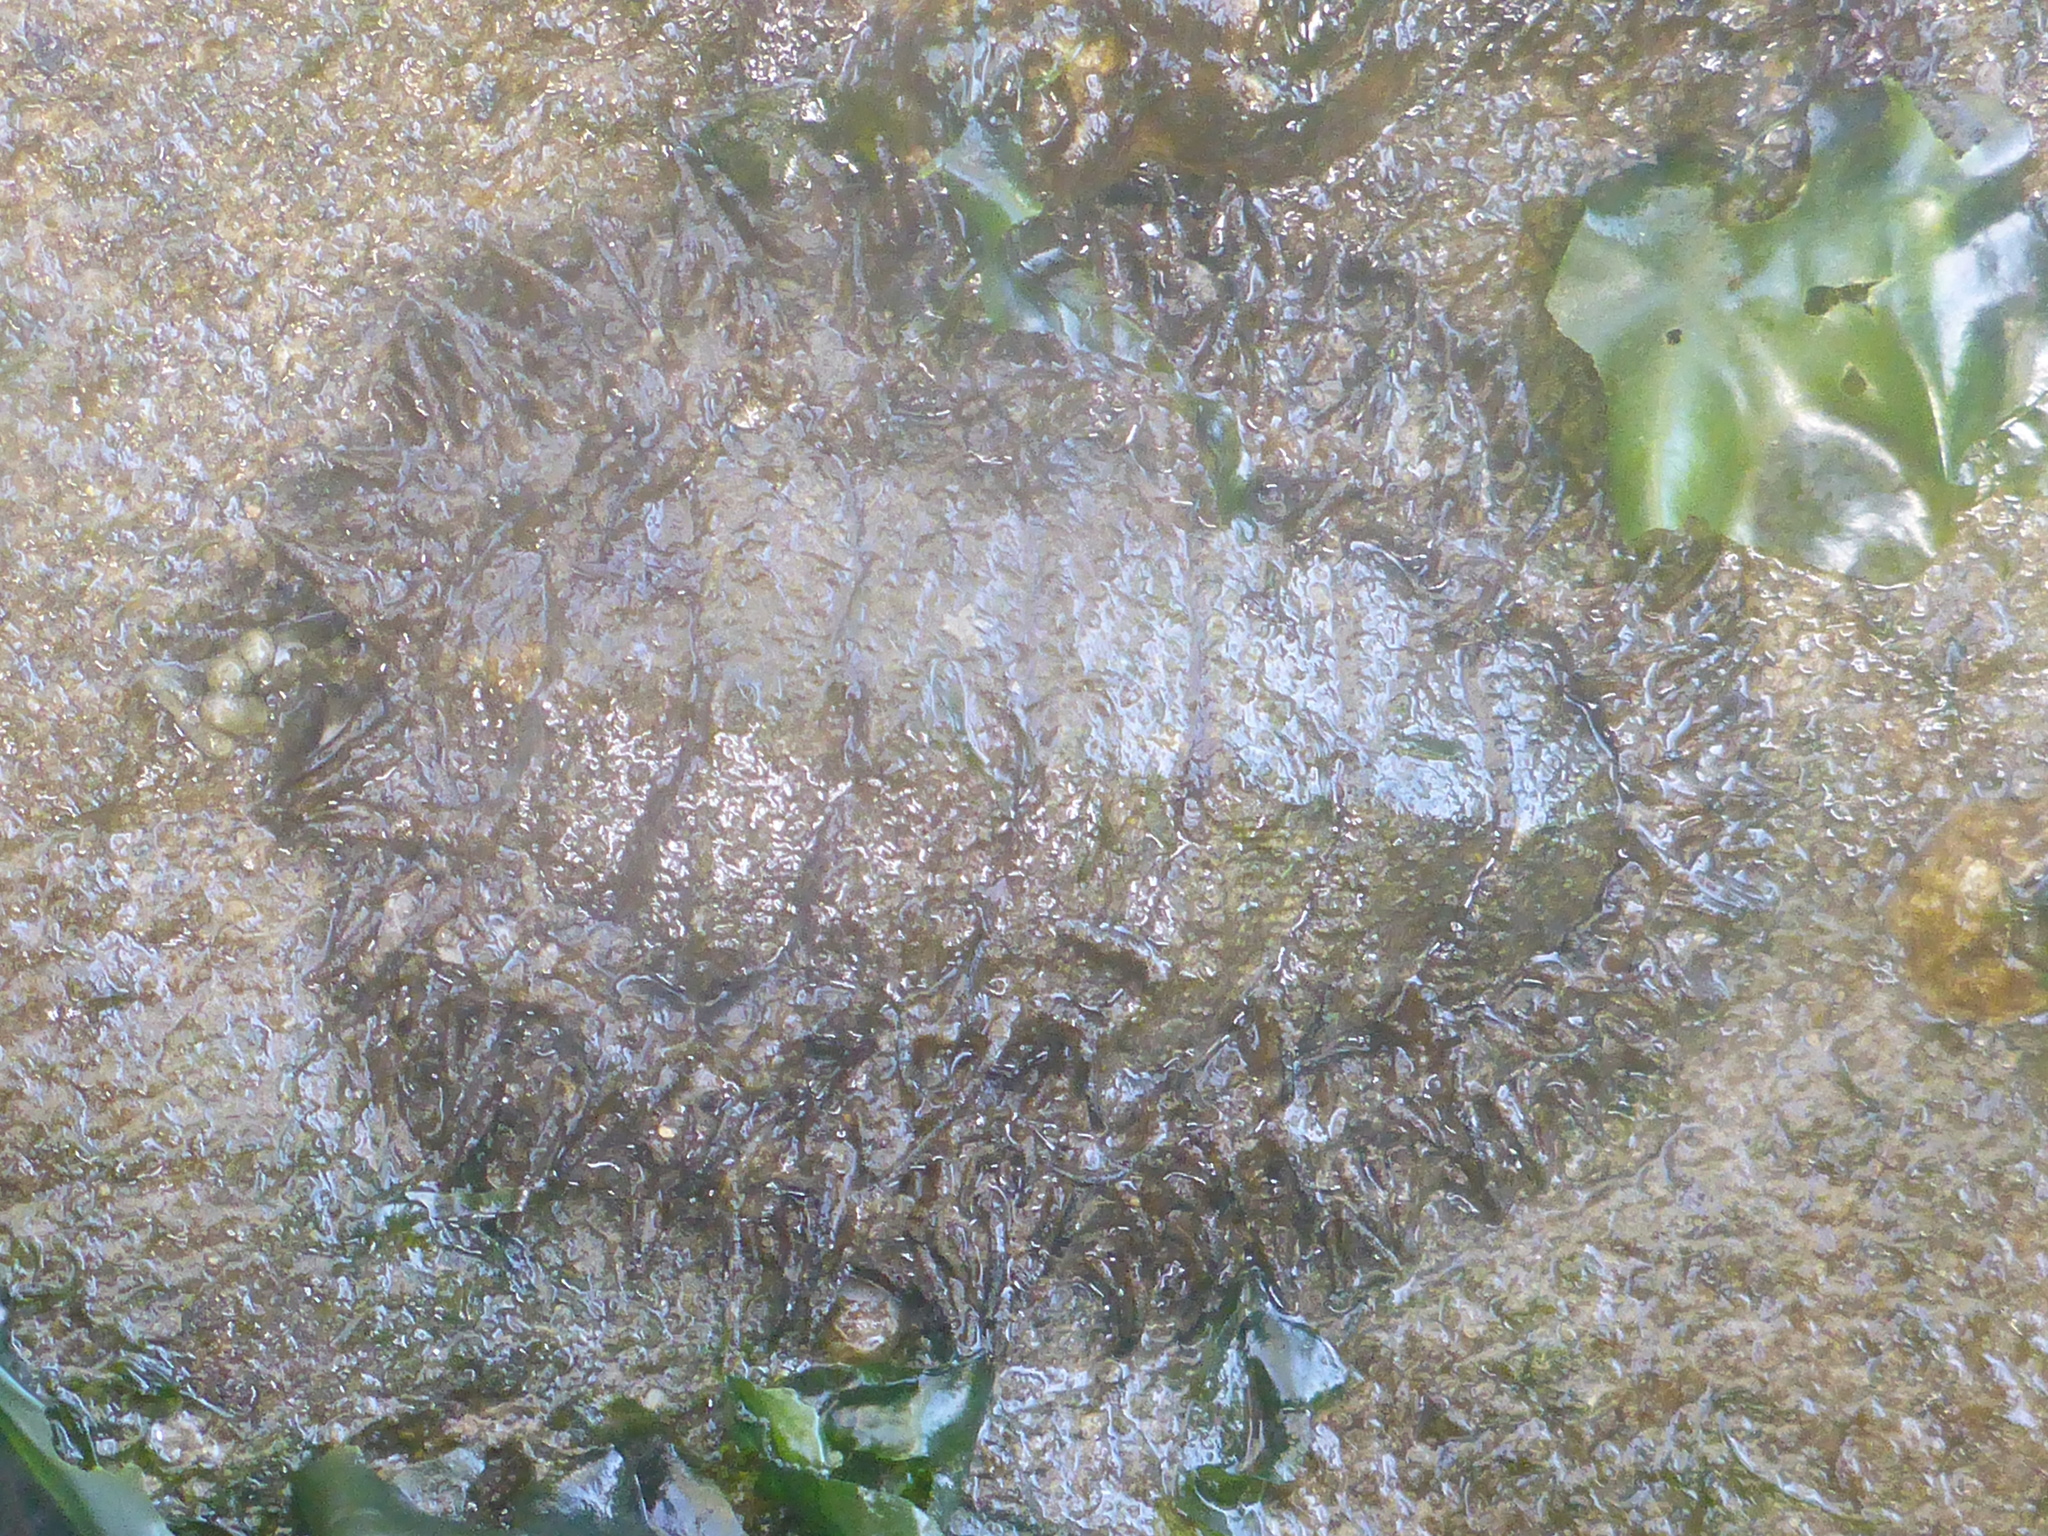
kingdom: Animalia
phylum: Mollusca
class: Polyplacophora
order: Chitonida
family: Mopaliidae
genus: Mopalia
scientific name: Mopalia muscosa
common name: Mossy chiton
